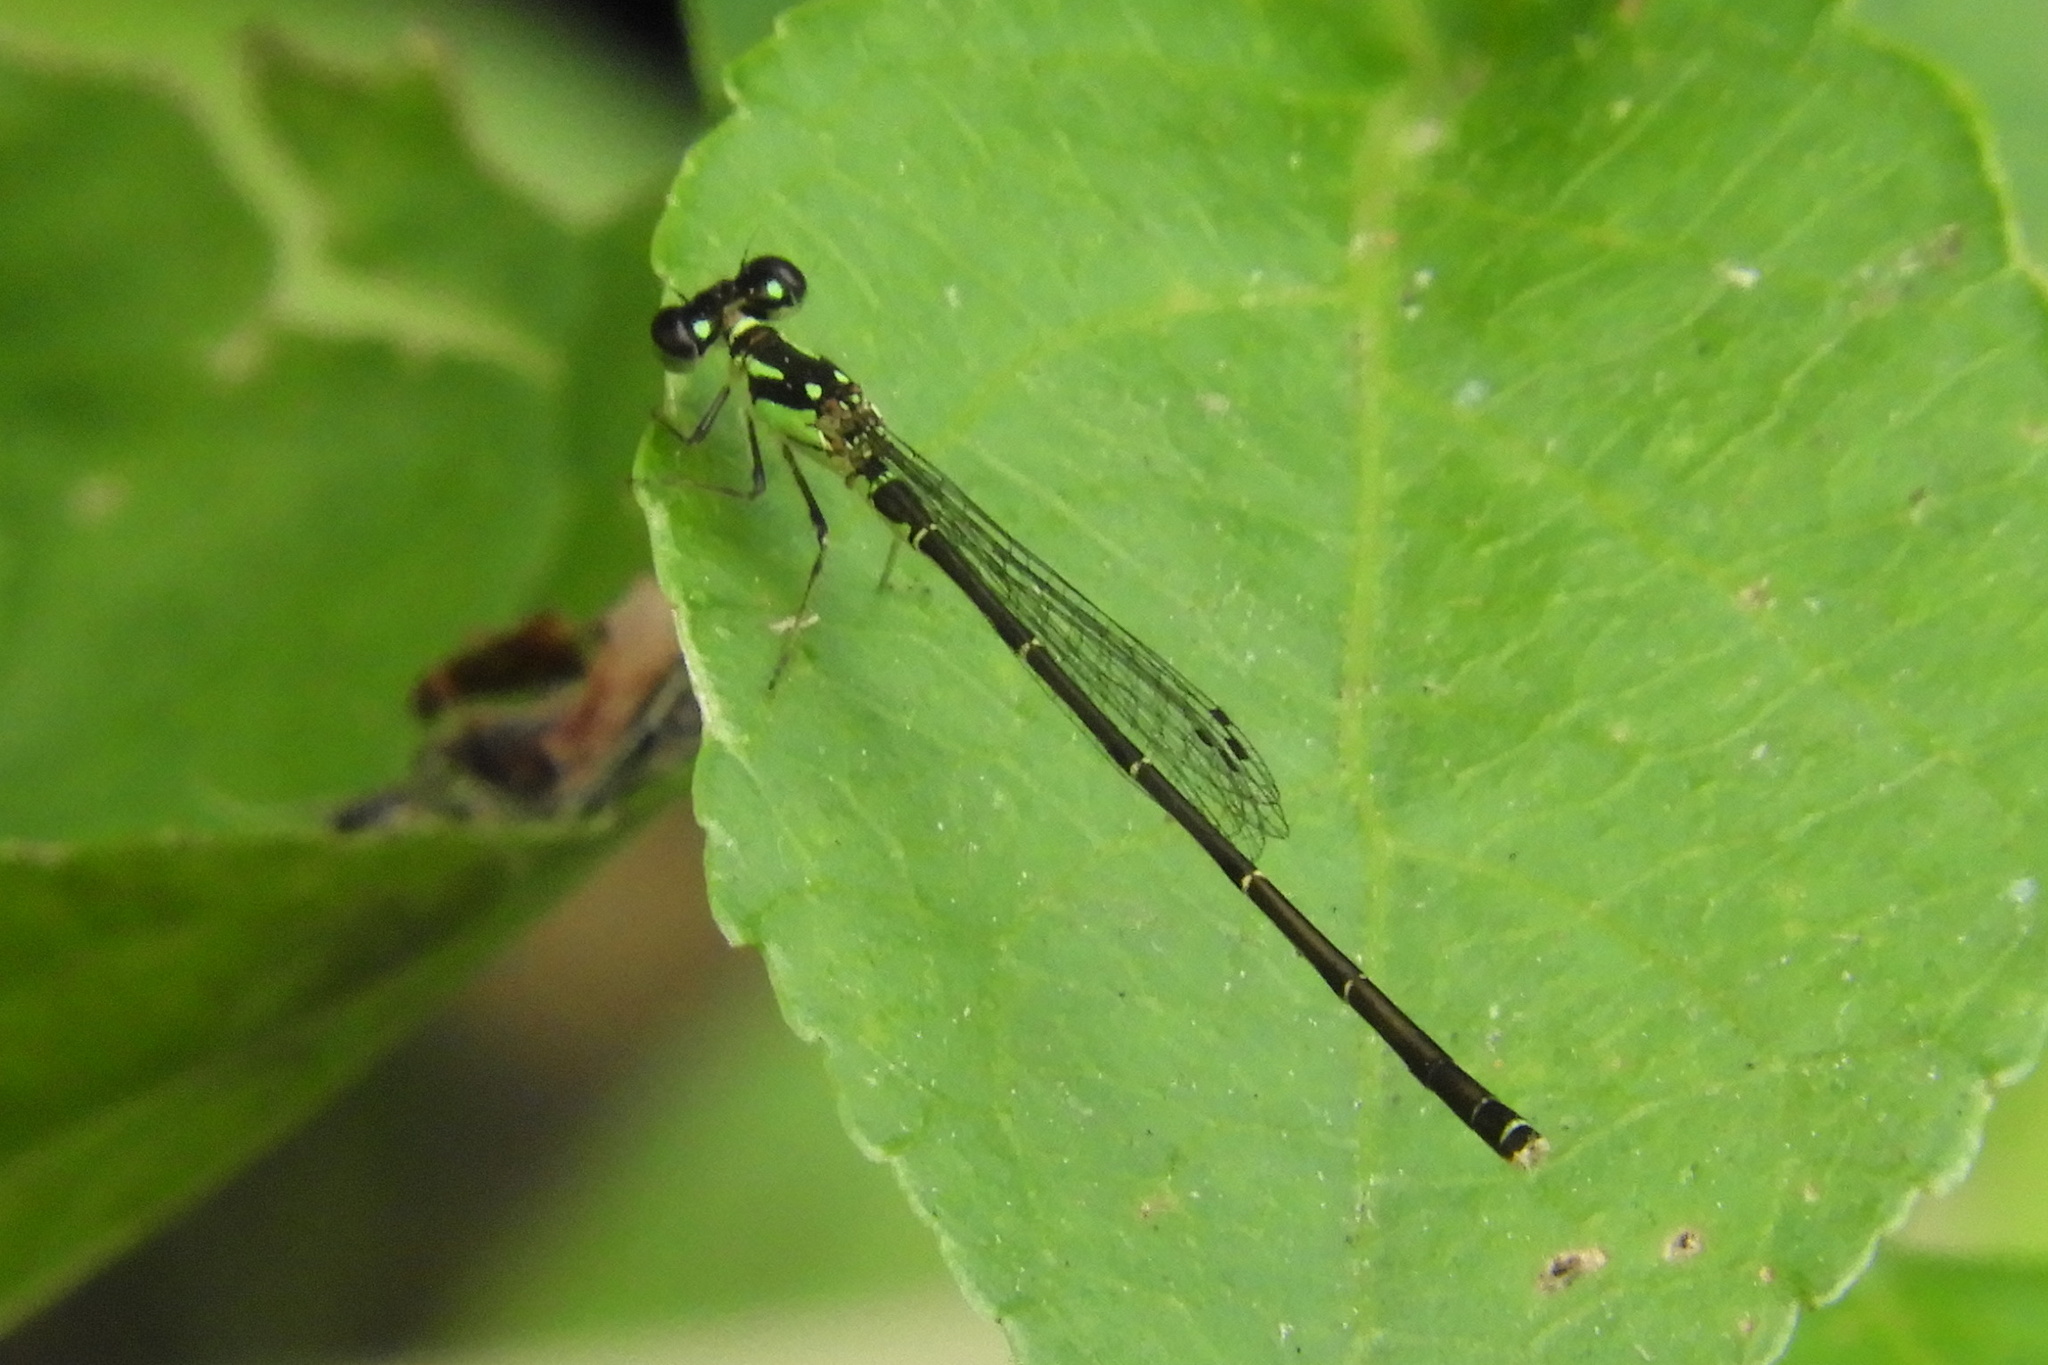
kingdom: Animalia
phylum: Arthropoda
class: Insecta
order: Odonata
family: Coenagrionidae
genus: Ischnura
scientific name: Ischnura posita
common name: Fragile forktail
